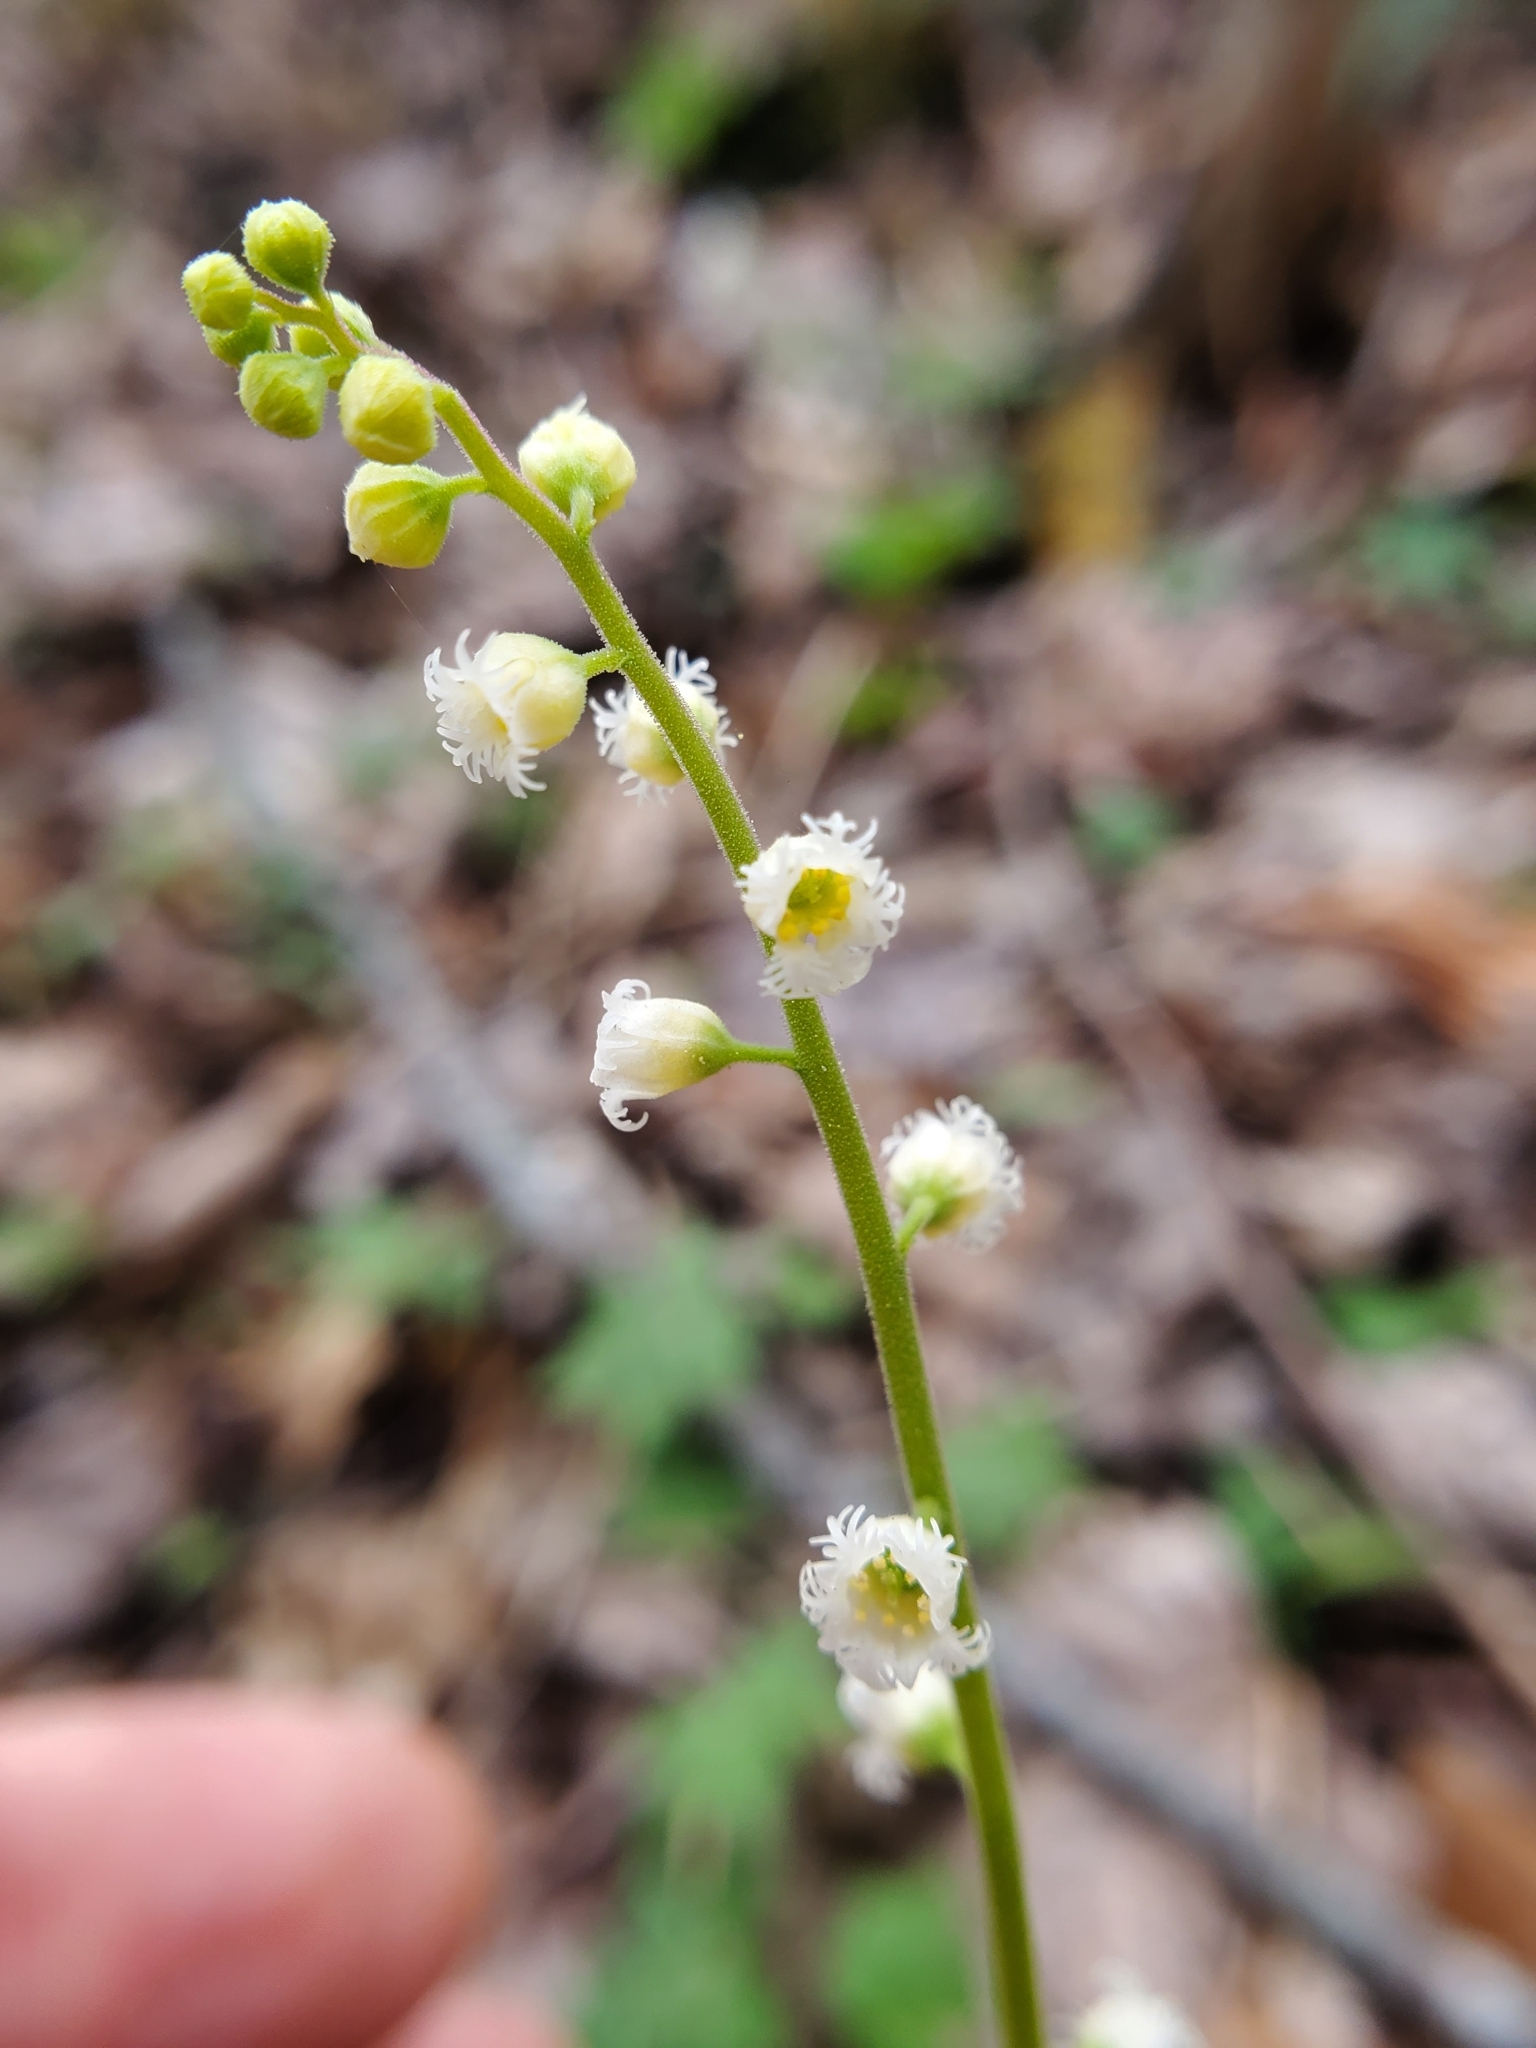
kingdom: Plantae
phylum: Tracheophyta
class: Magnoliopsida
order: Saxifragales
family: Saxifragaceae
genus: Mitella
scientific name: Mitella diphylla
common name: Coolwort
